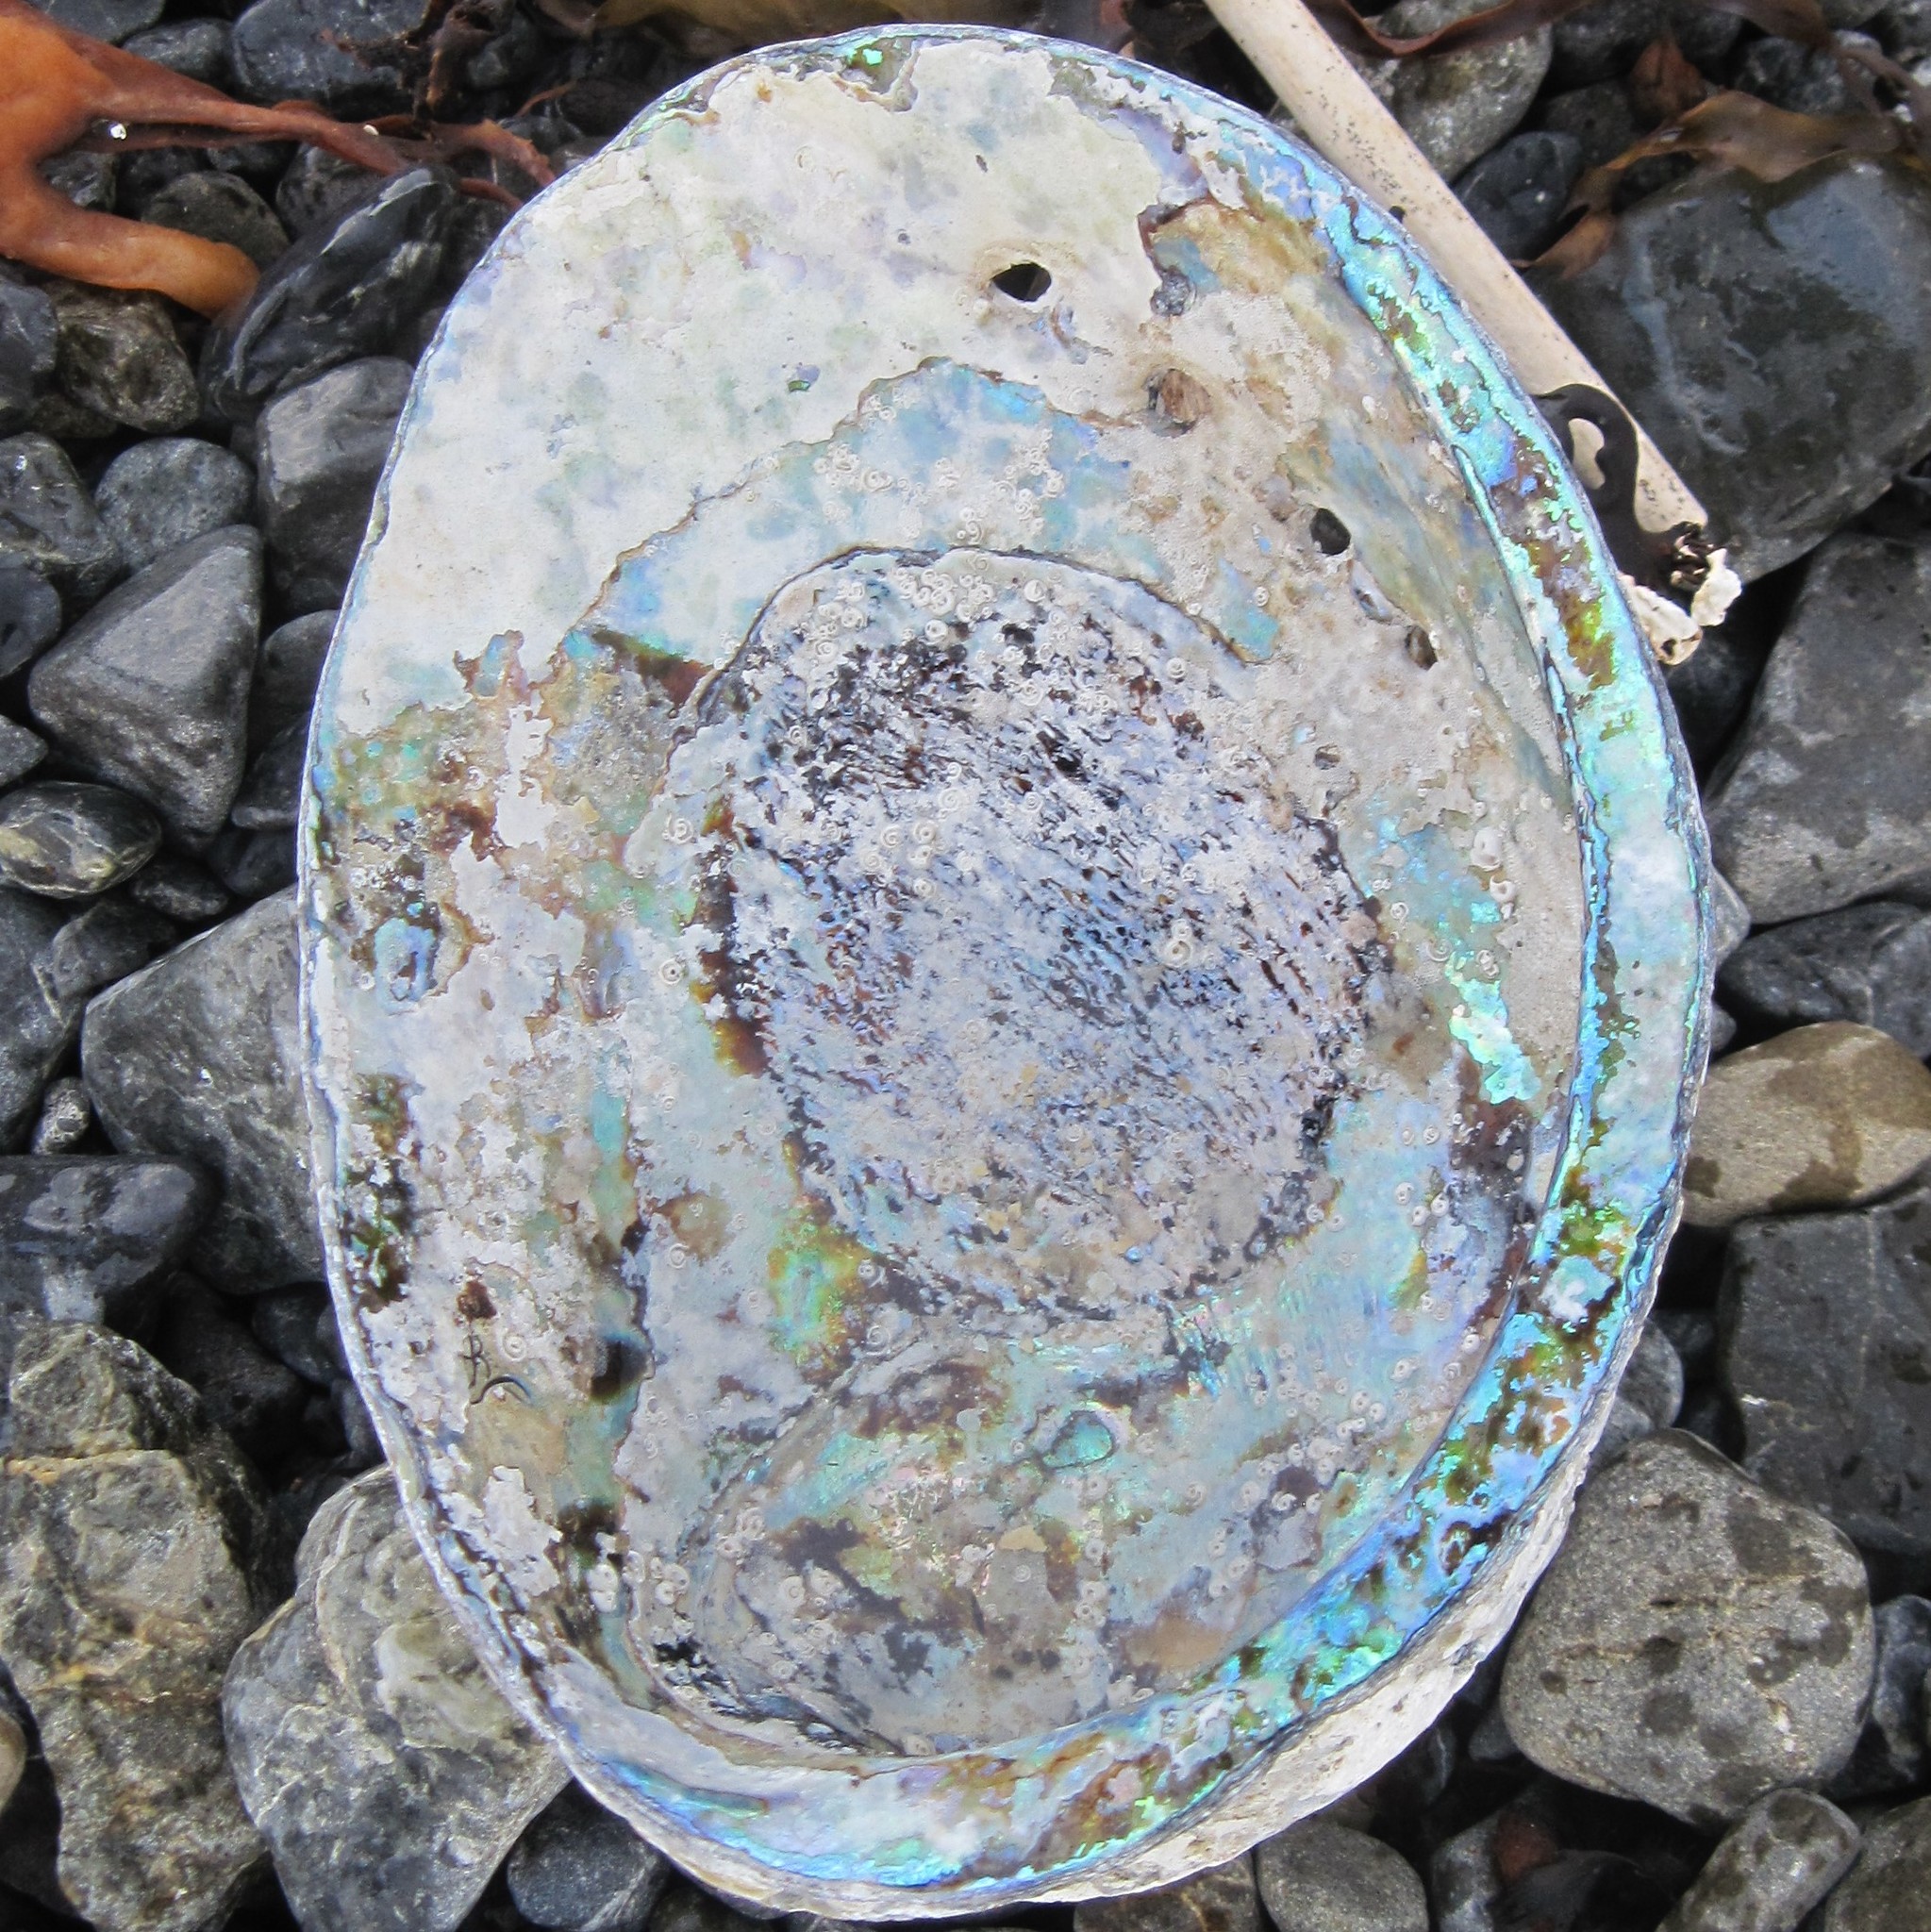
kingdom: Animalia
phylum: Mollusca
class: Gastropoda
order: Lepetellida
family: Haliotidae
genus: Haliotis
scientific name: Haliotis iris
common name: Abalone
